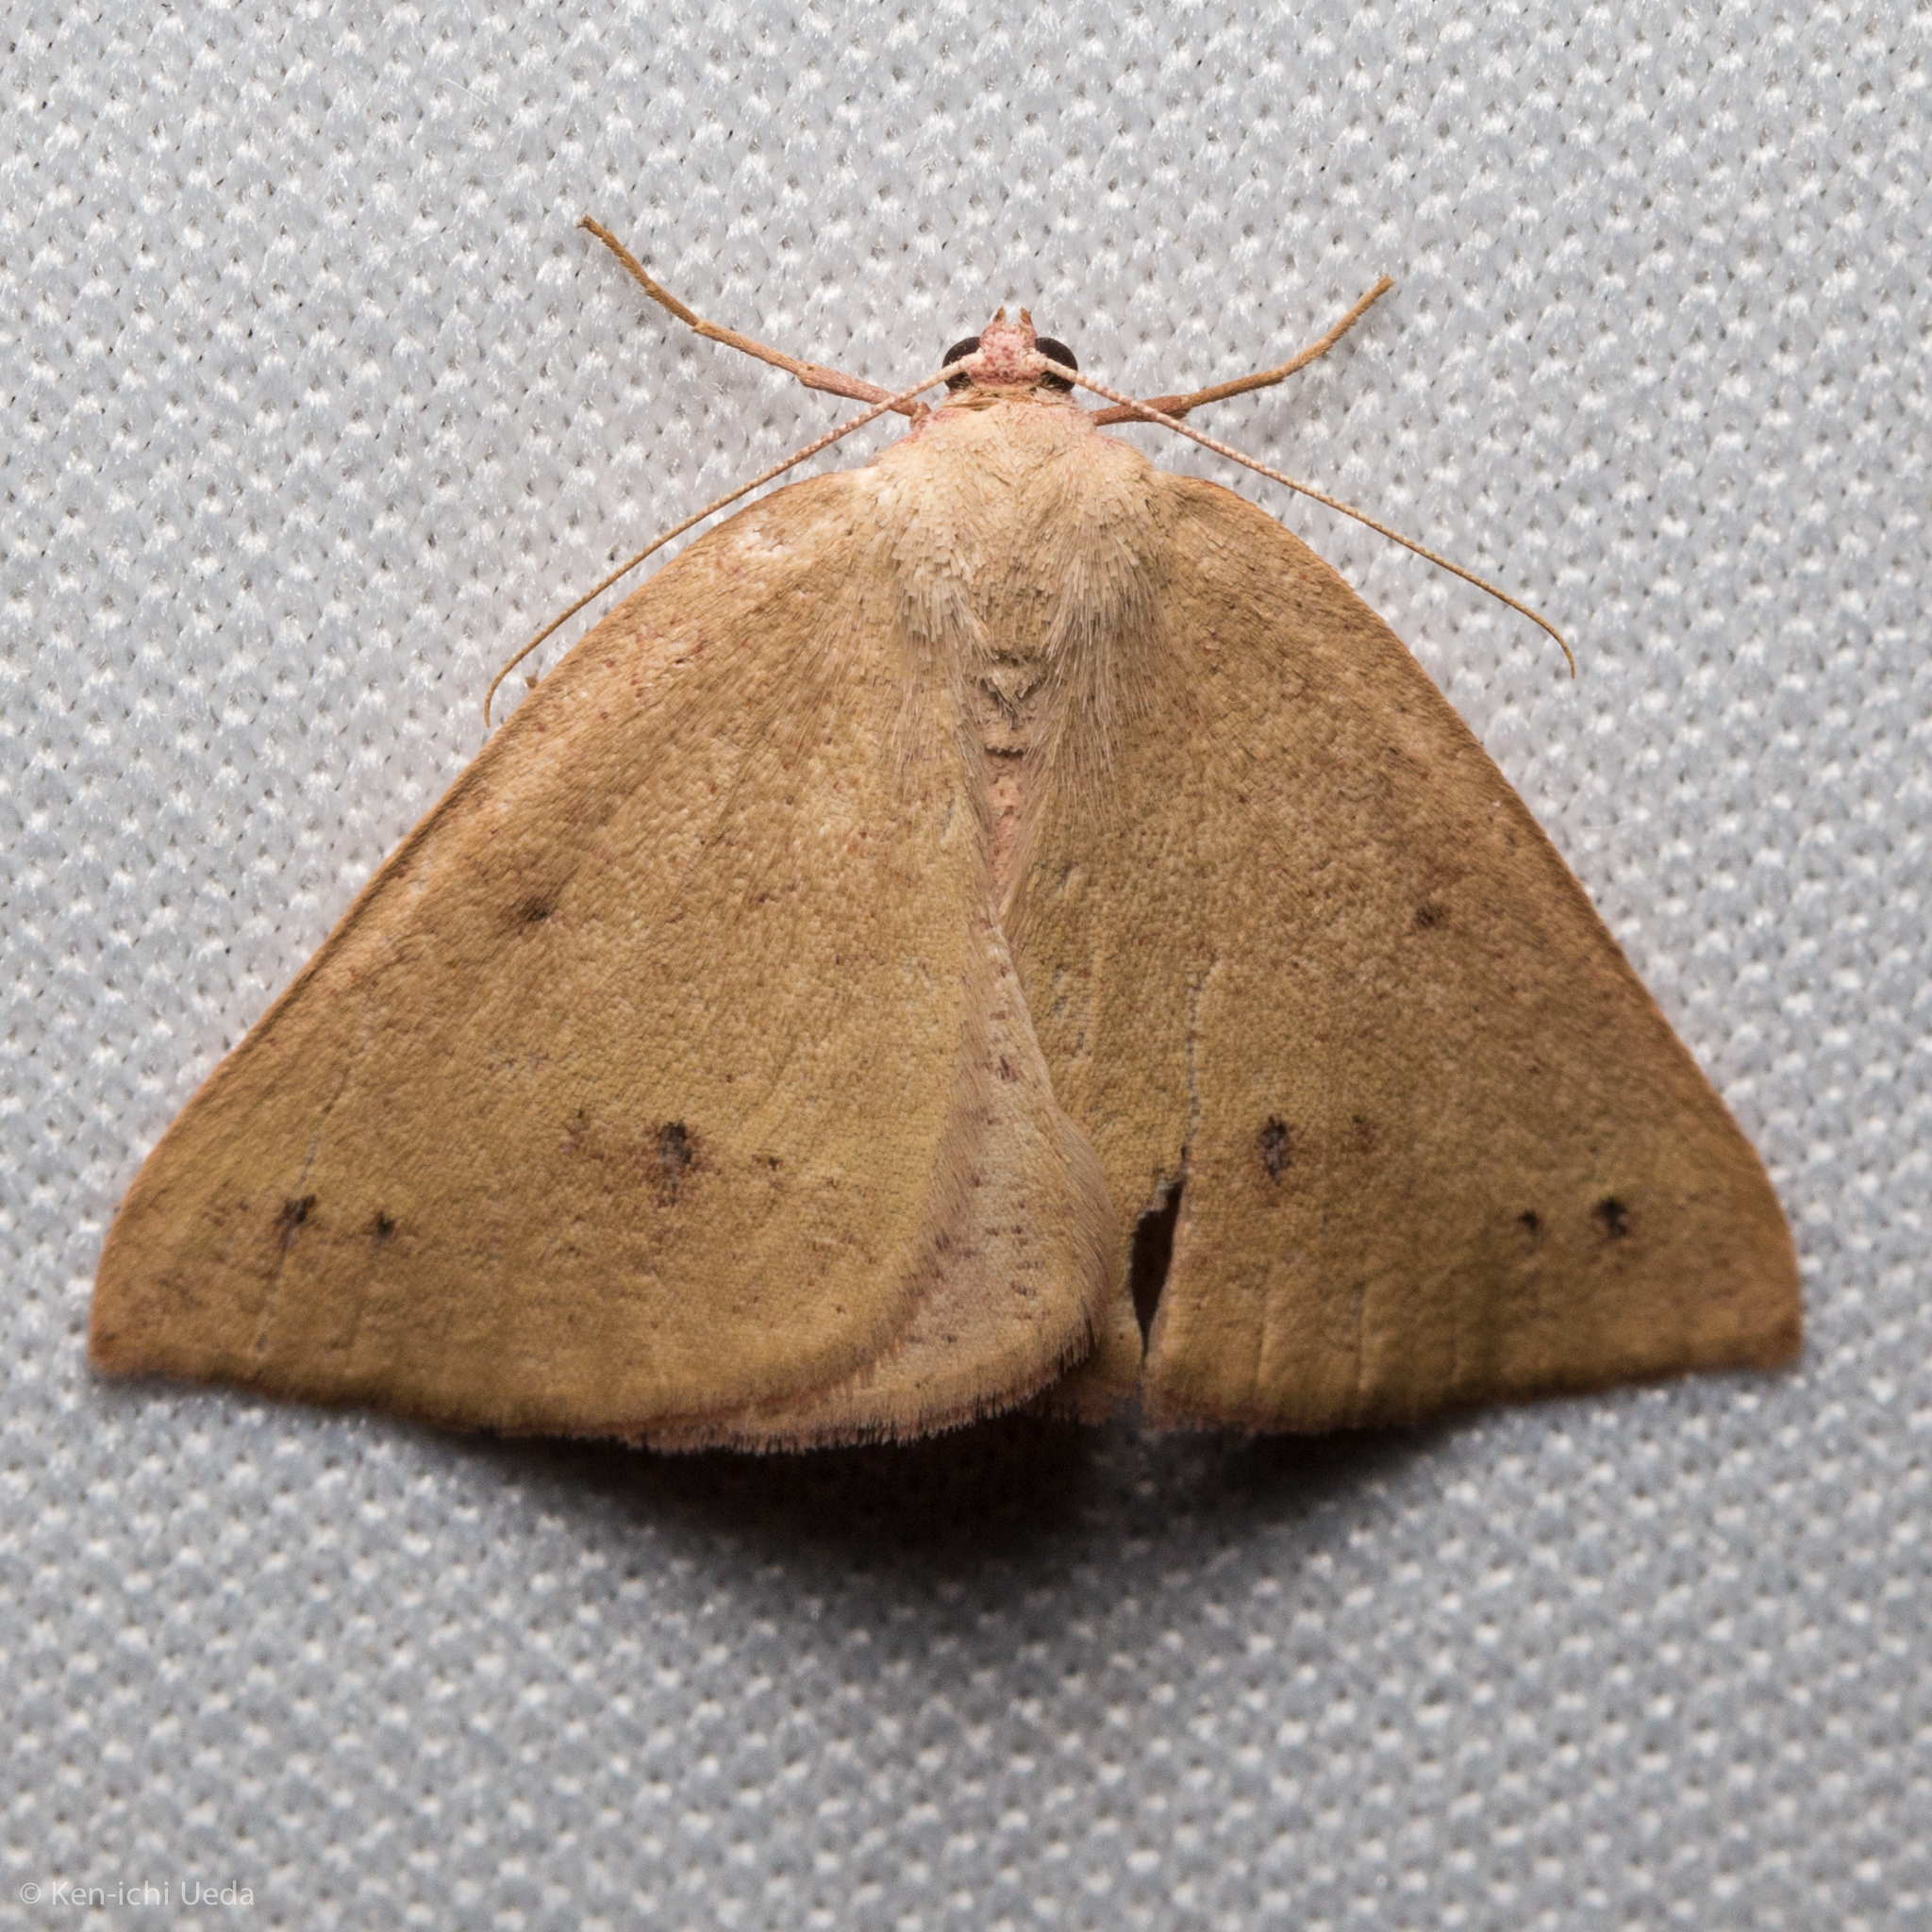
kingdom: Animalia
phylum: Arthropoda
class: Insecta
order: Lepidoptera
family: Geometridae
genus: Drepanulatrix
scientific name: Drepanulatrix unicalcararia
